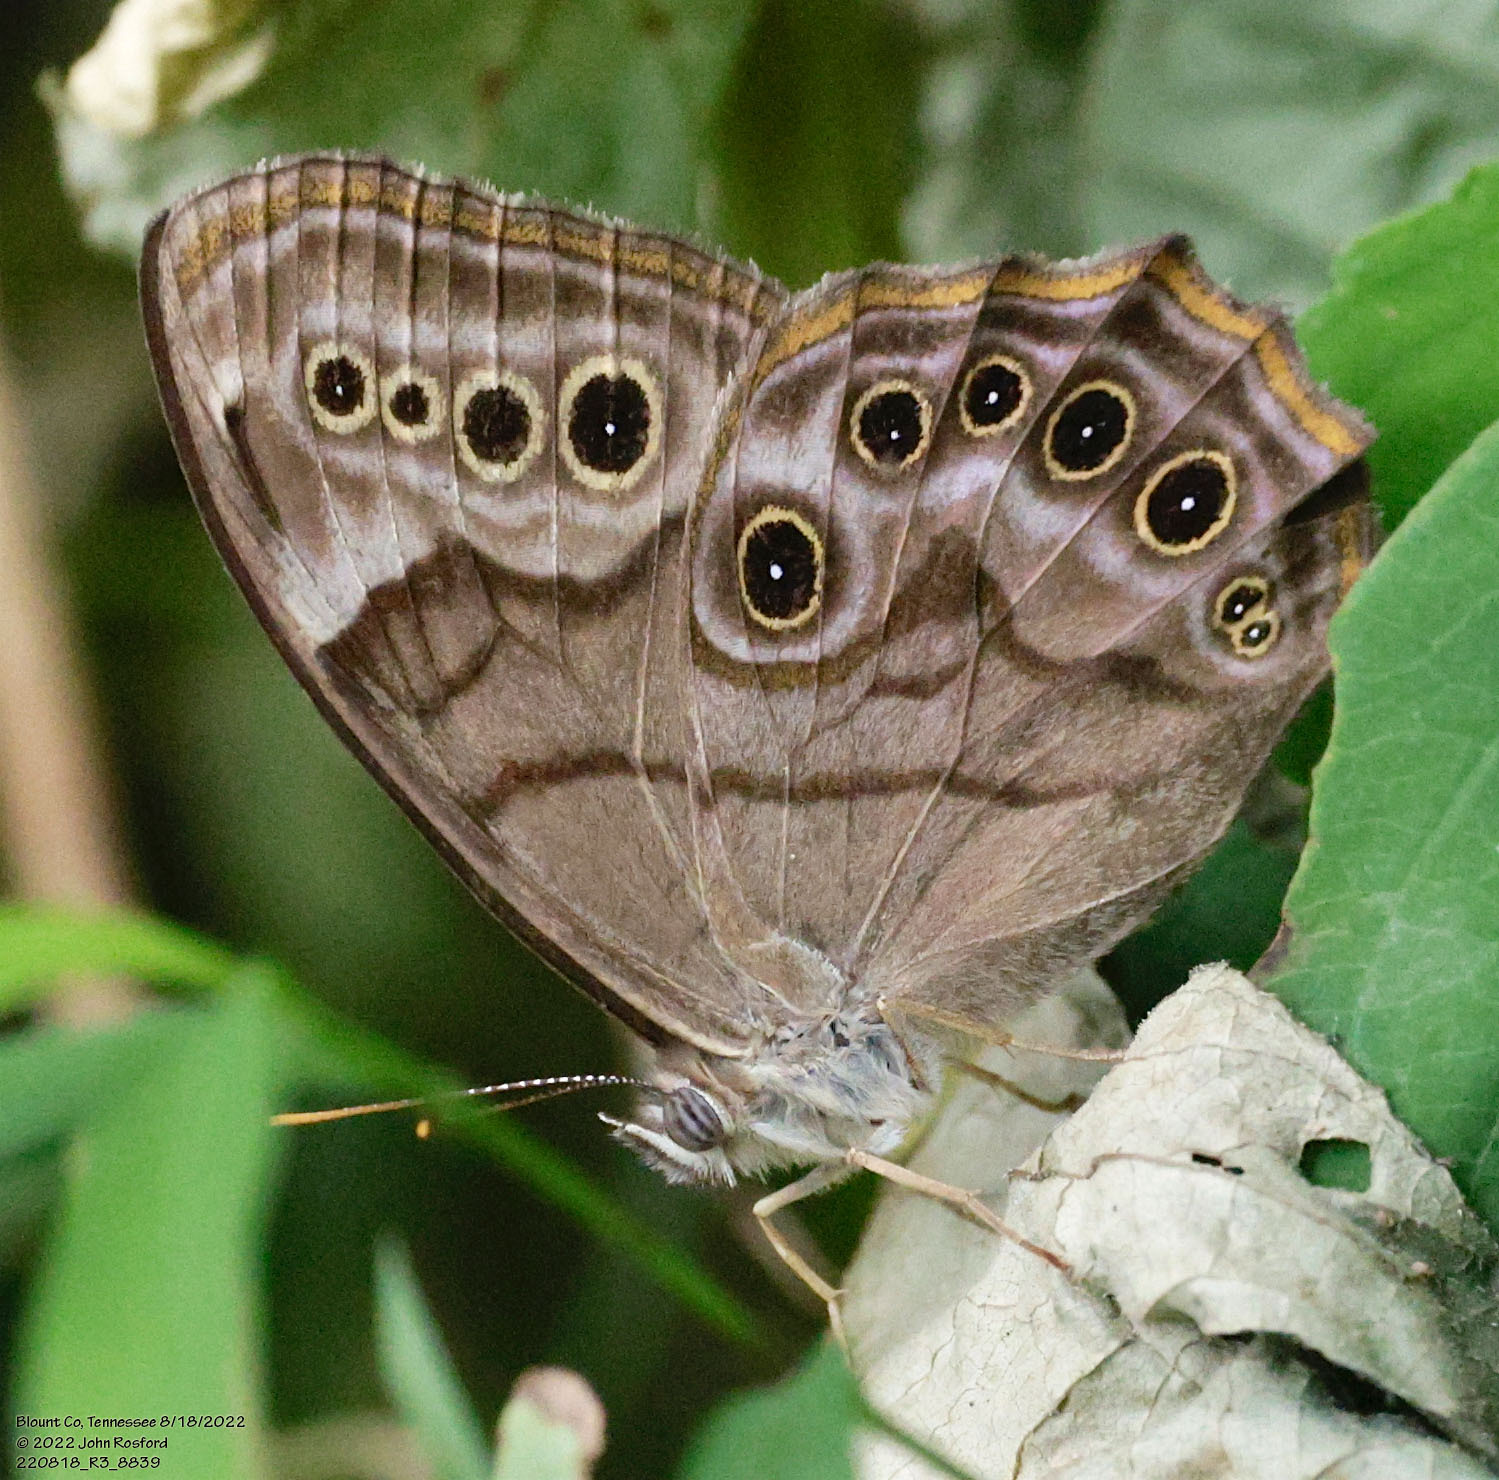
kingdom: Animalia
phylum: Arthropoda
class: Insecta
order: Lepidoptera
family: Nymphalidae
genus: Lethe
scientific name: Lethe anthedon
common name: Northern pearly-eye
